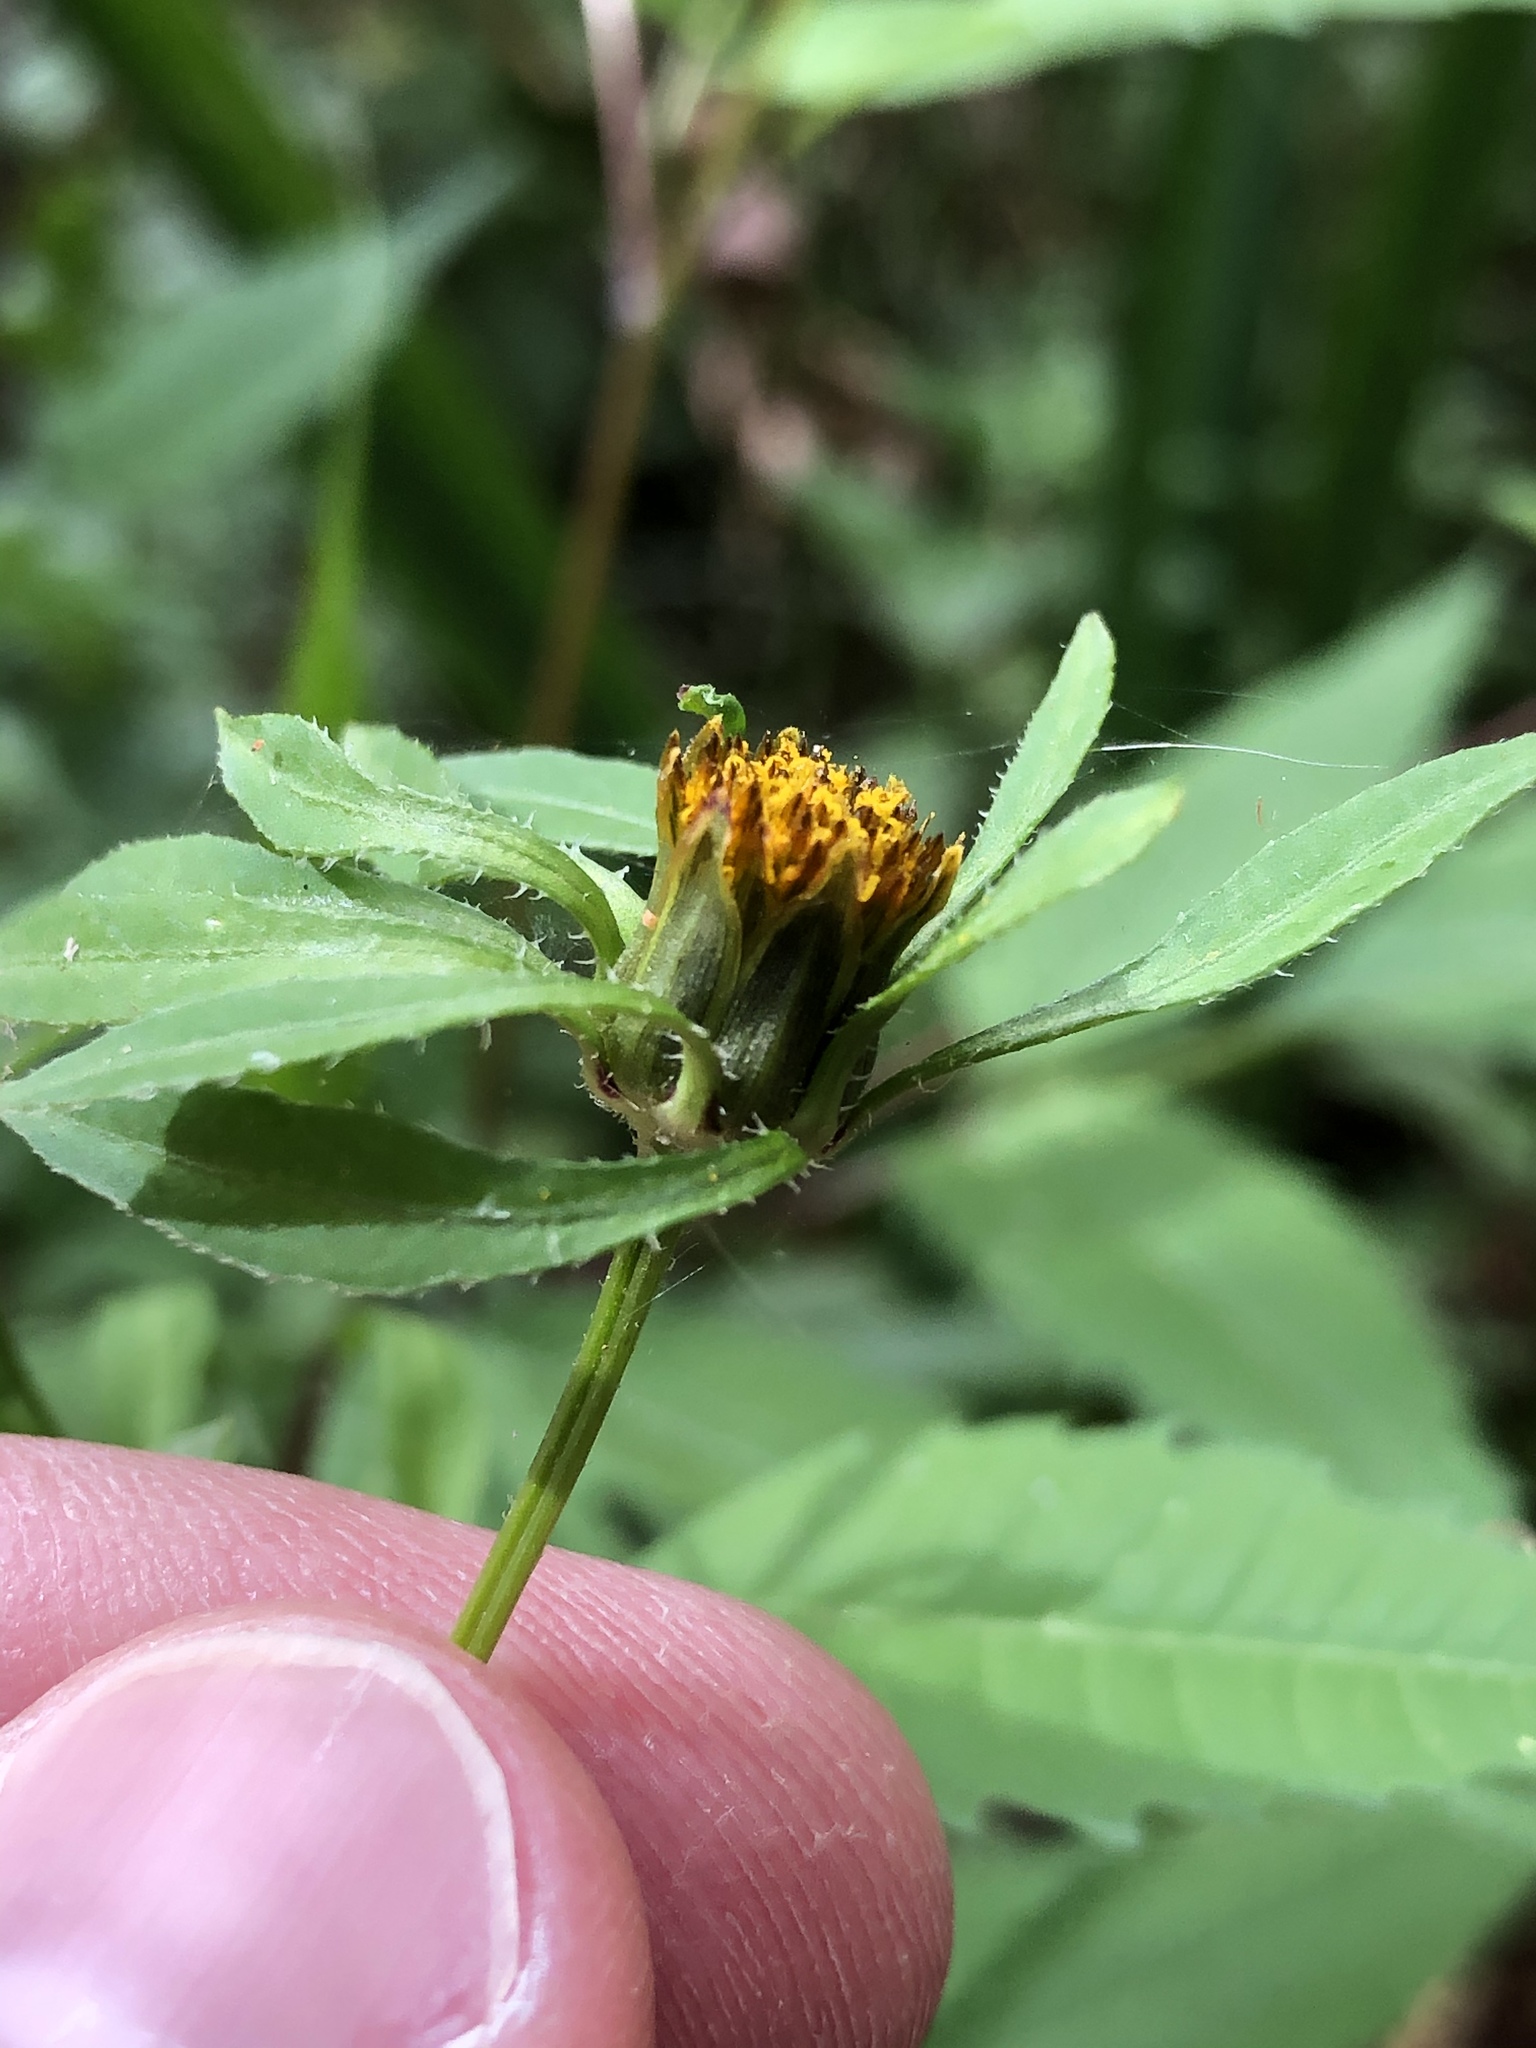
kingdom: Plantae
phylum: Tracheophyta
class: Magnoliopsida
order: Asterales
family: Asteraceae
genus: Bidens
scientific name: Bidens frondosa
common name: Beggarticks
